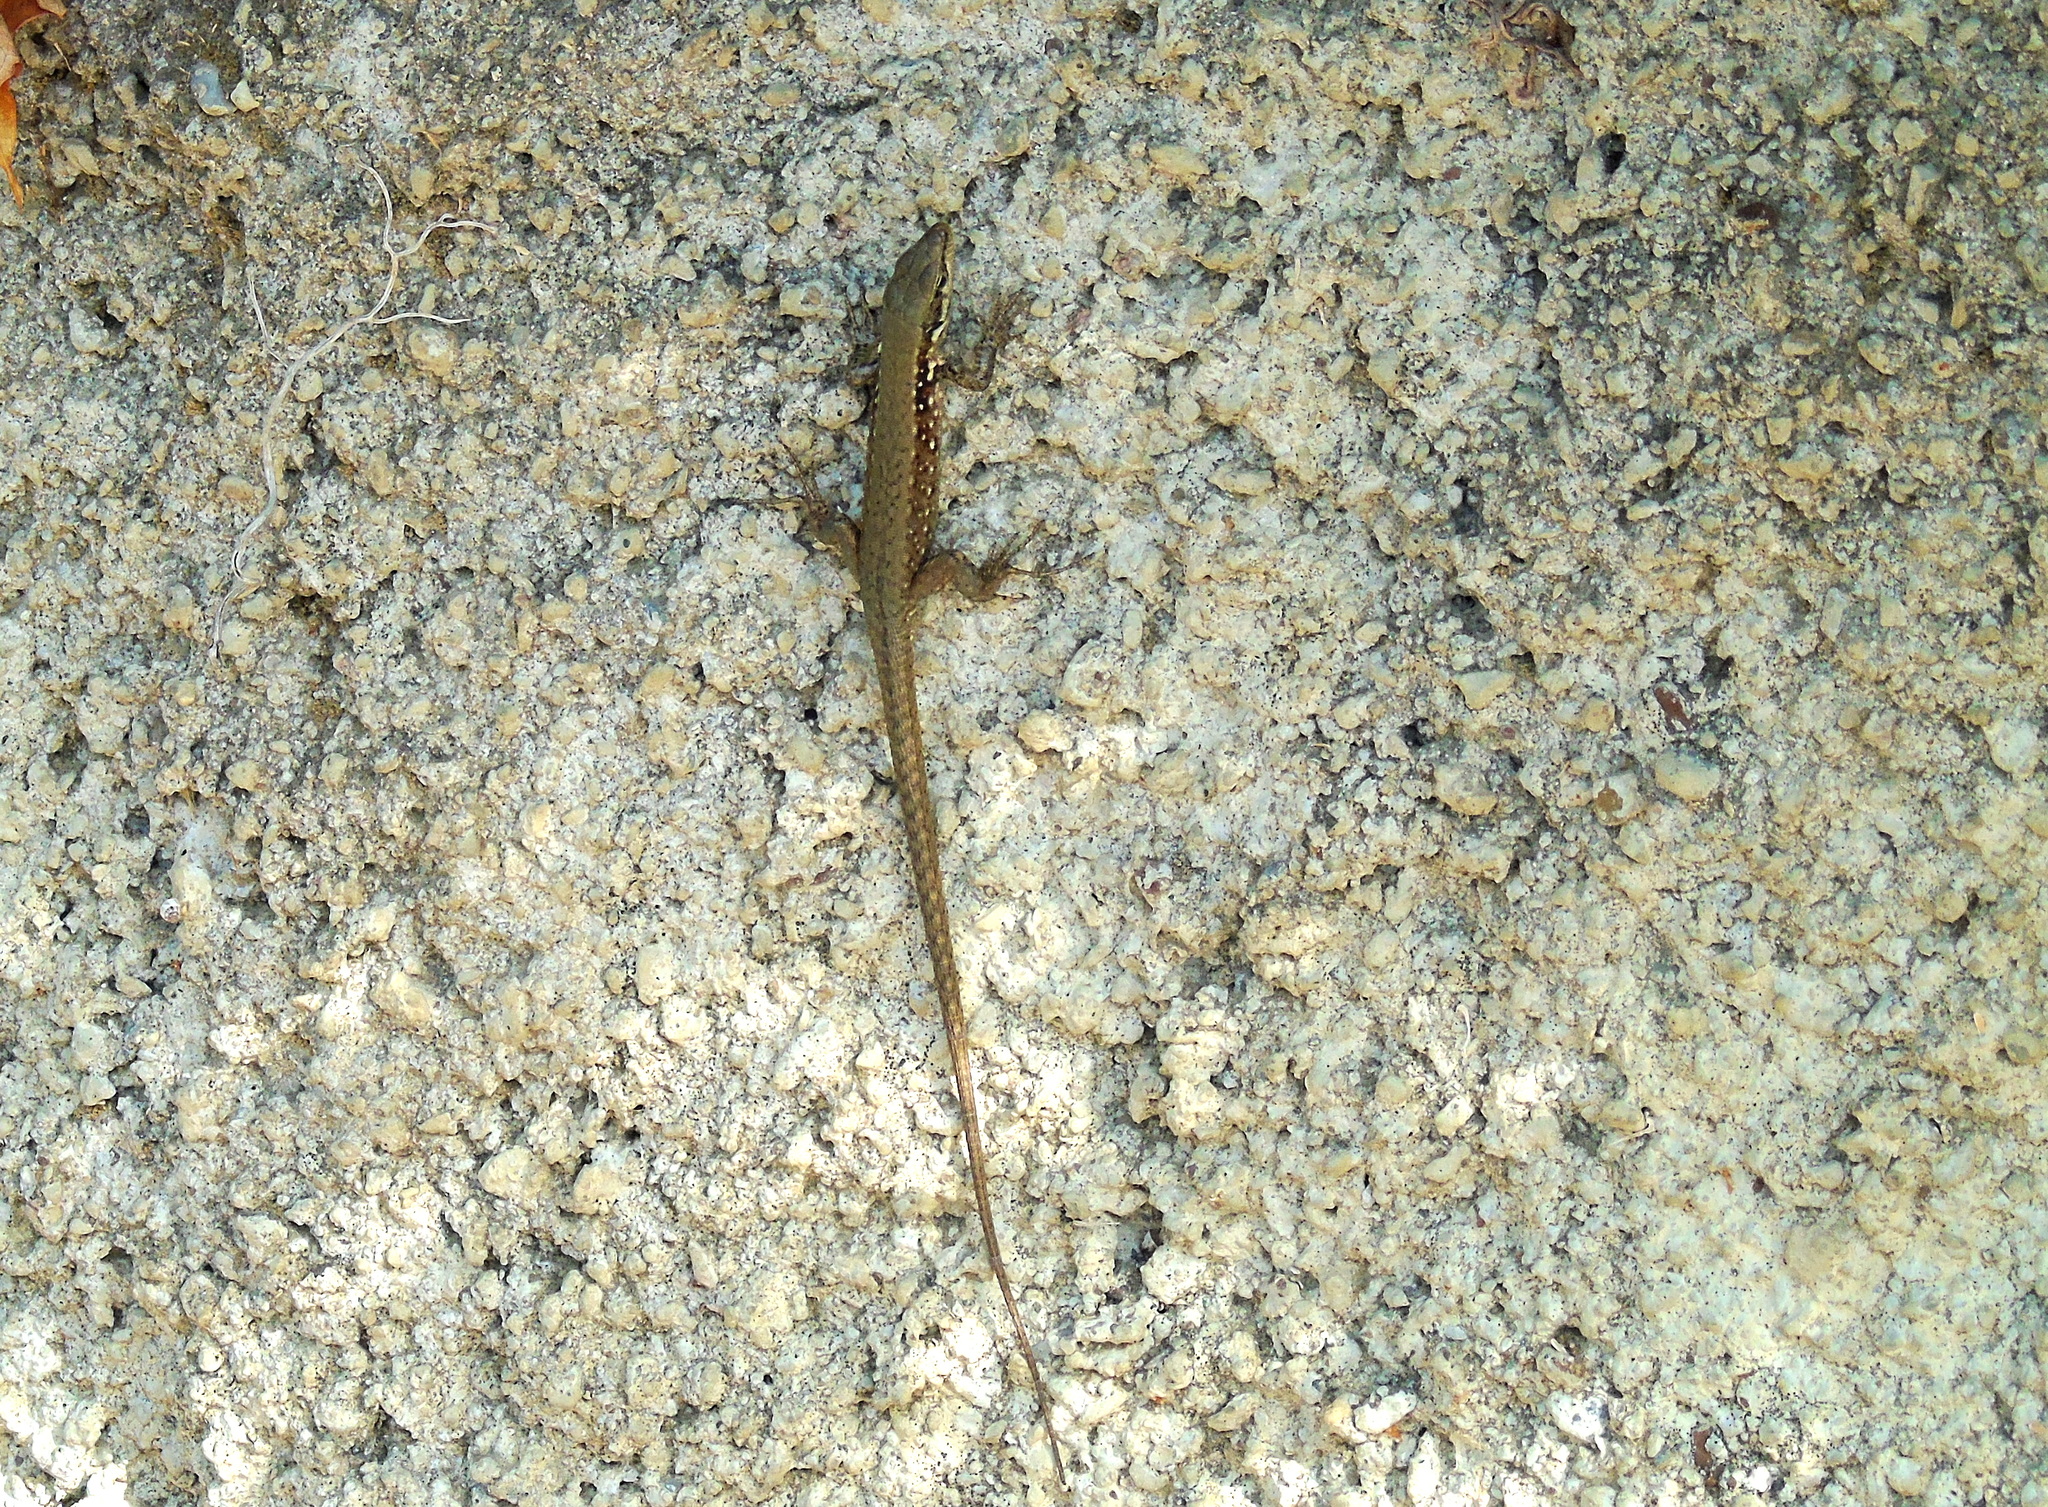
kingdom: Animalia
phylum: Chordata
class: Squamata
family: Lacertidae
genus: Phoenicolacerta
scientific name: Phoenicolacerta laevis
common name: Lebanon lizard
